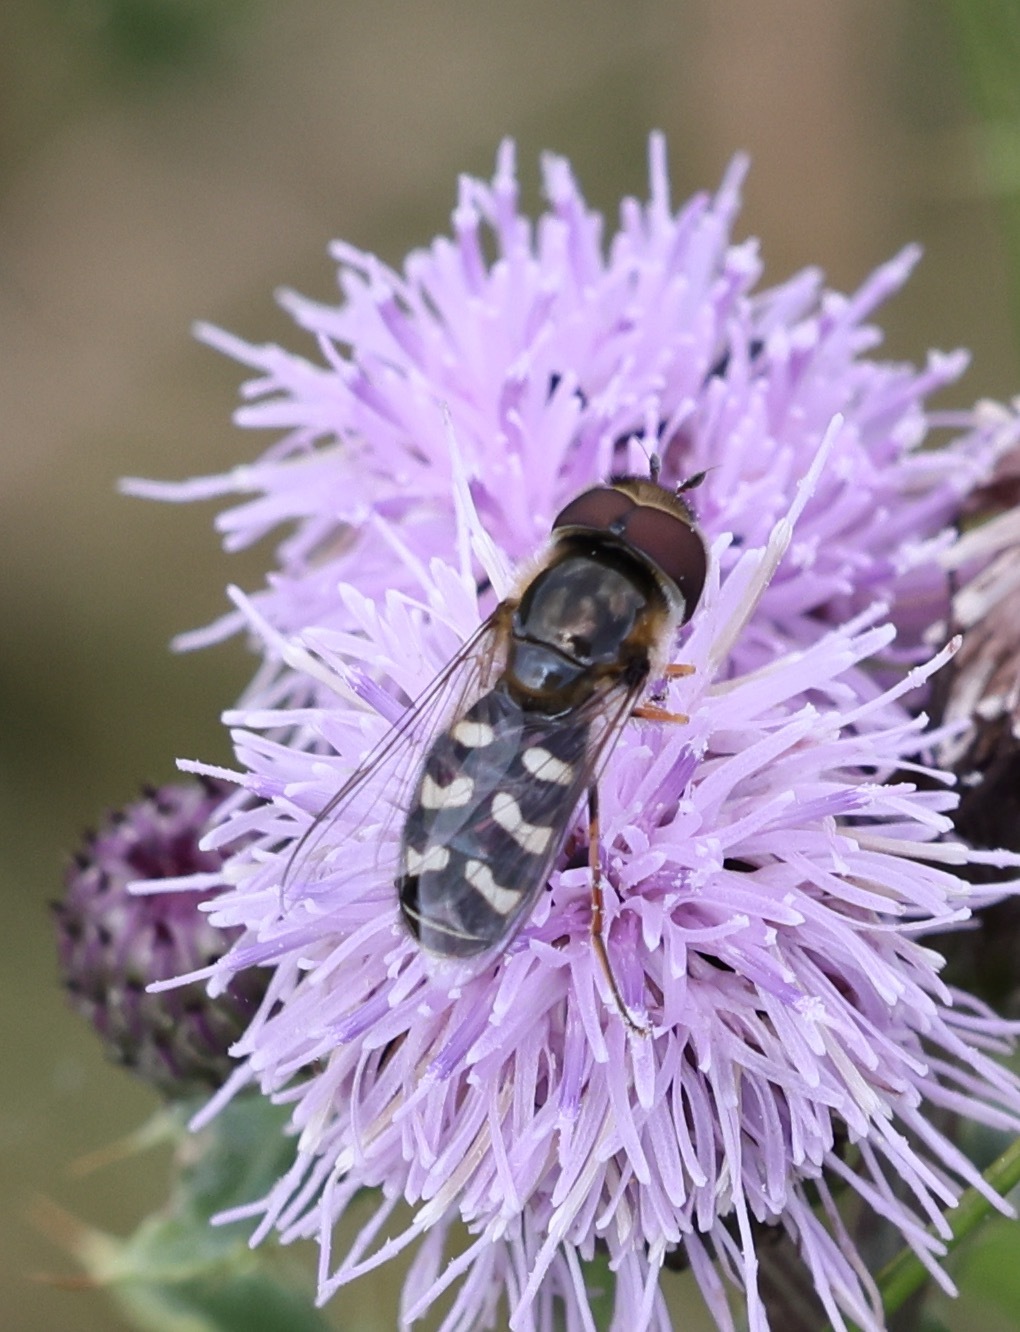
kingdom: Animalia
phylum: Arthropoda
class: Insecta
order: Diptera
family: Syrphidae
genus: Scaeva
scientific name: Scaeva pyrastri
